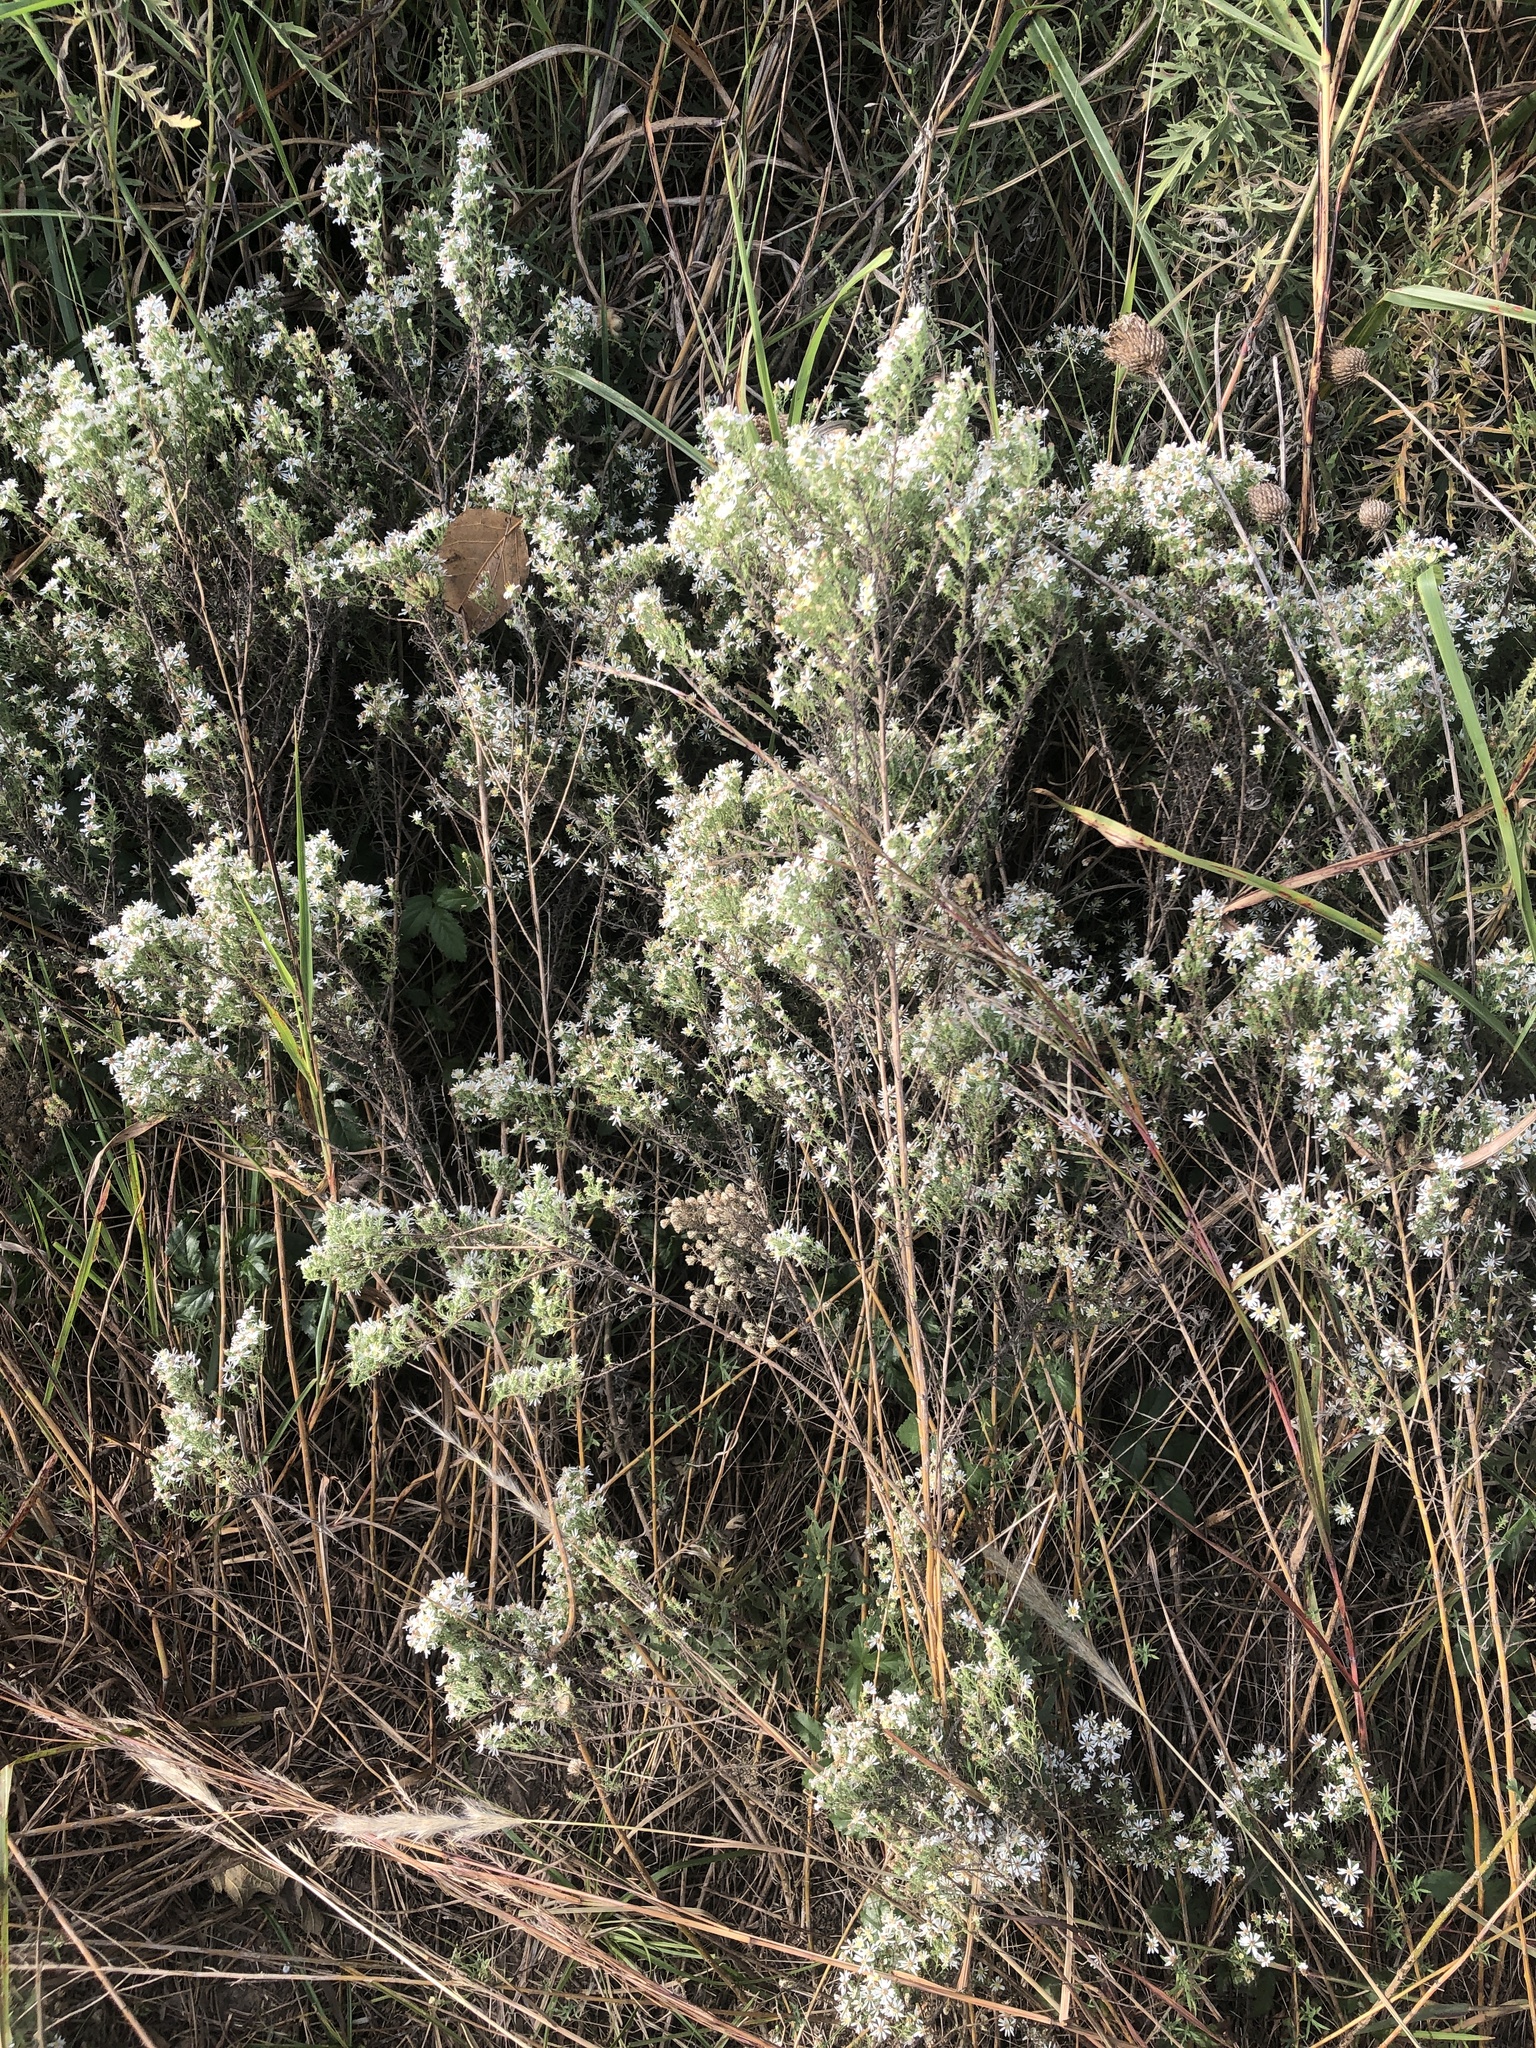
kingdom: Plantae
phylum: Tracheophyta
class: Magnoliopsida
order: Asterales
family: Asteraceae
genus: Symphyotrichum
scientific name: Symphyotrichum ericoides
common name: Heath aster
